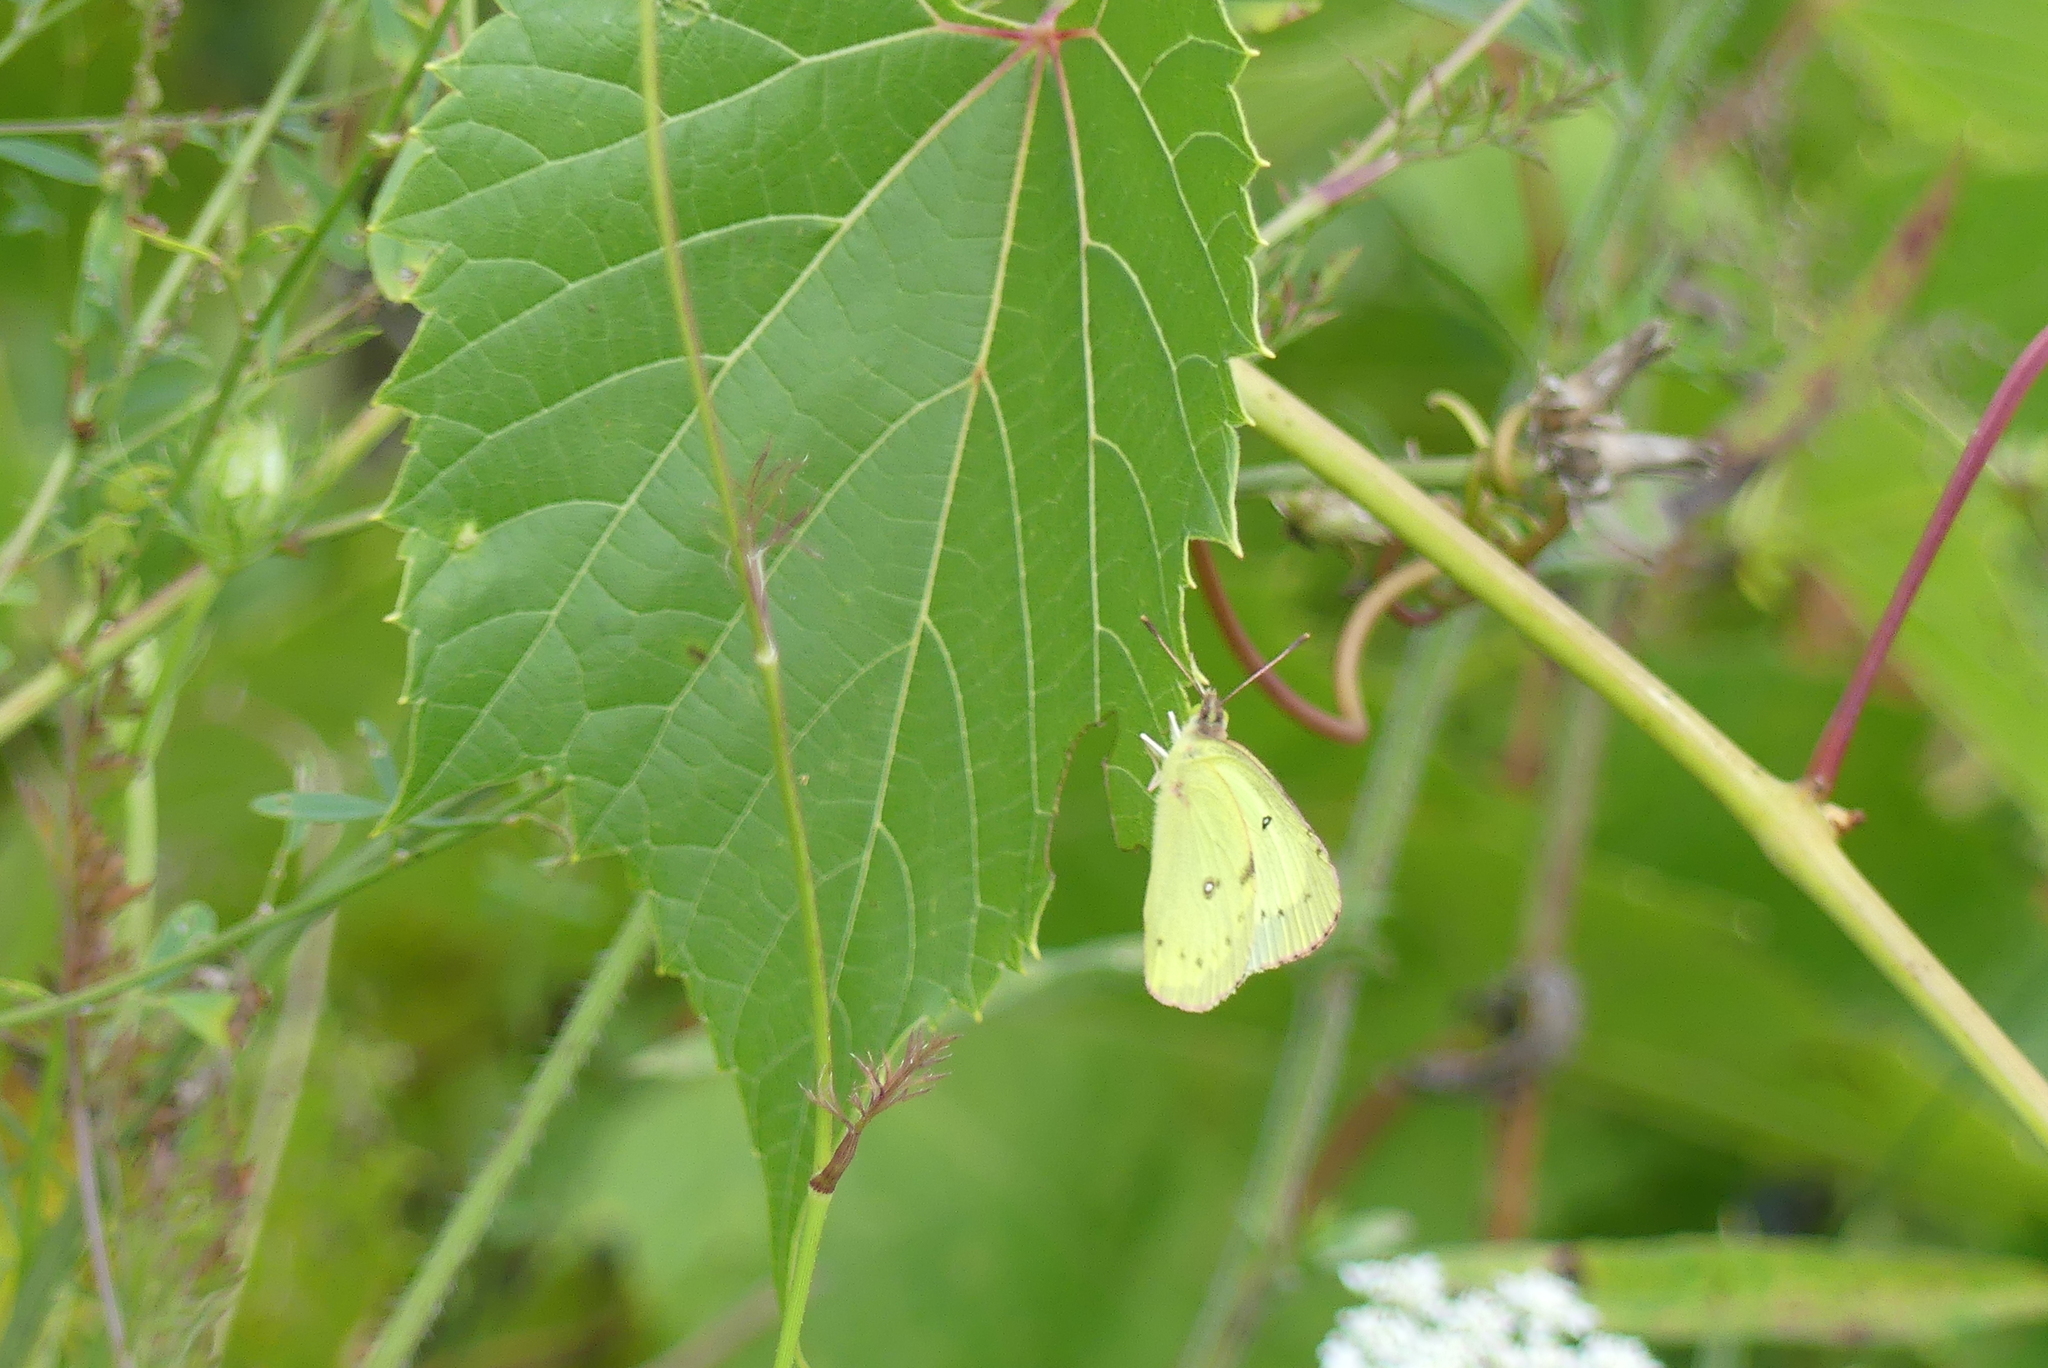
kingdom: Animalia
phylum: Arthropoda
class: Insecta
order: Lepidoptera
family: Pieridae
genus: Colias
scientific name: Colias philodice
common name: Clouded sulphur
